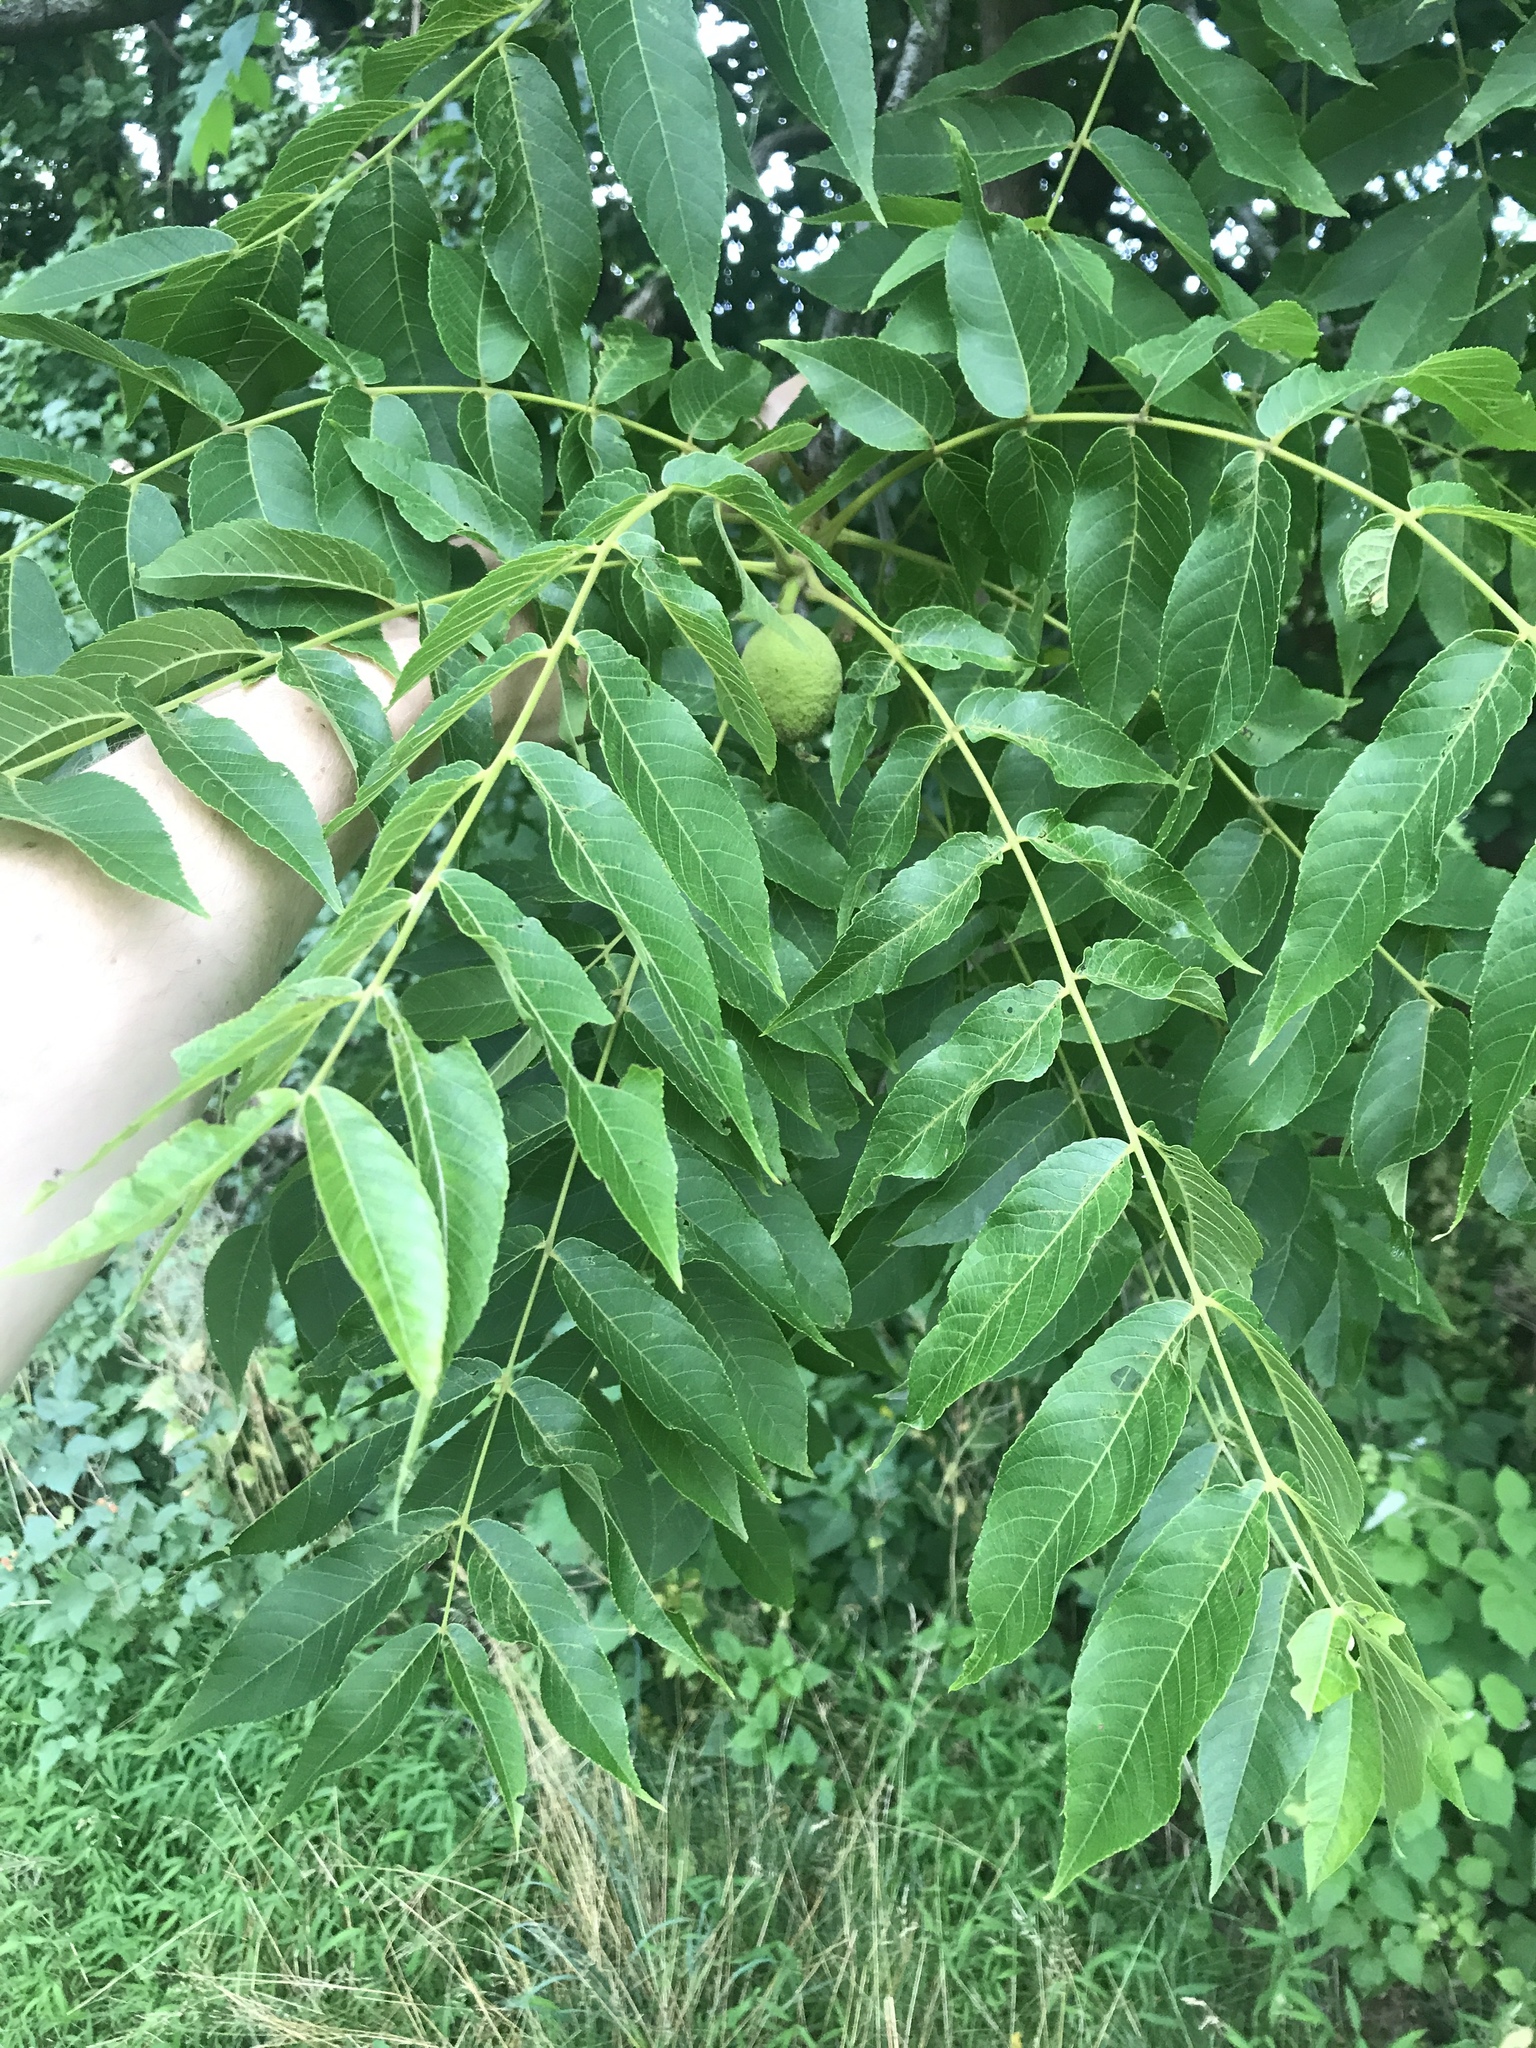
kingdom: Plantae
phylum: Tracheophyta
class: Magnoliopsida
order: Fagales
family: Juglandaceae
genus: Juglans
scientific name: Juglans nigra
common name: Black walnut
